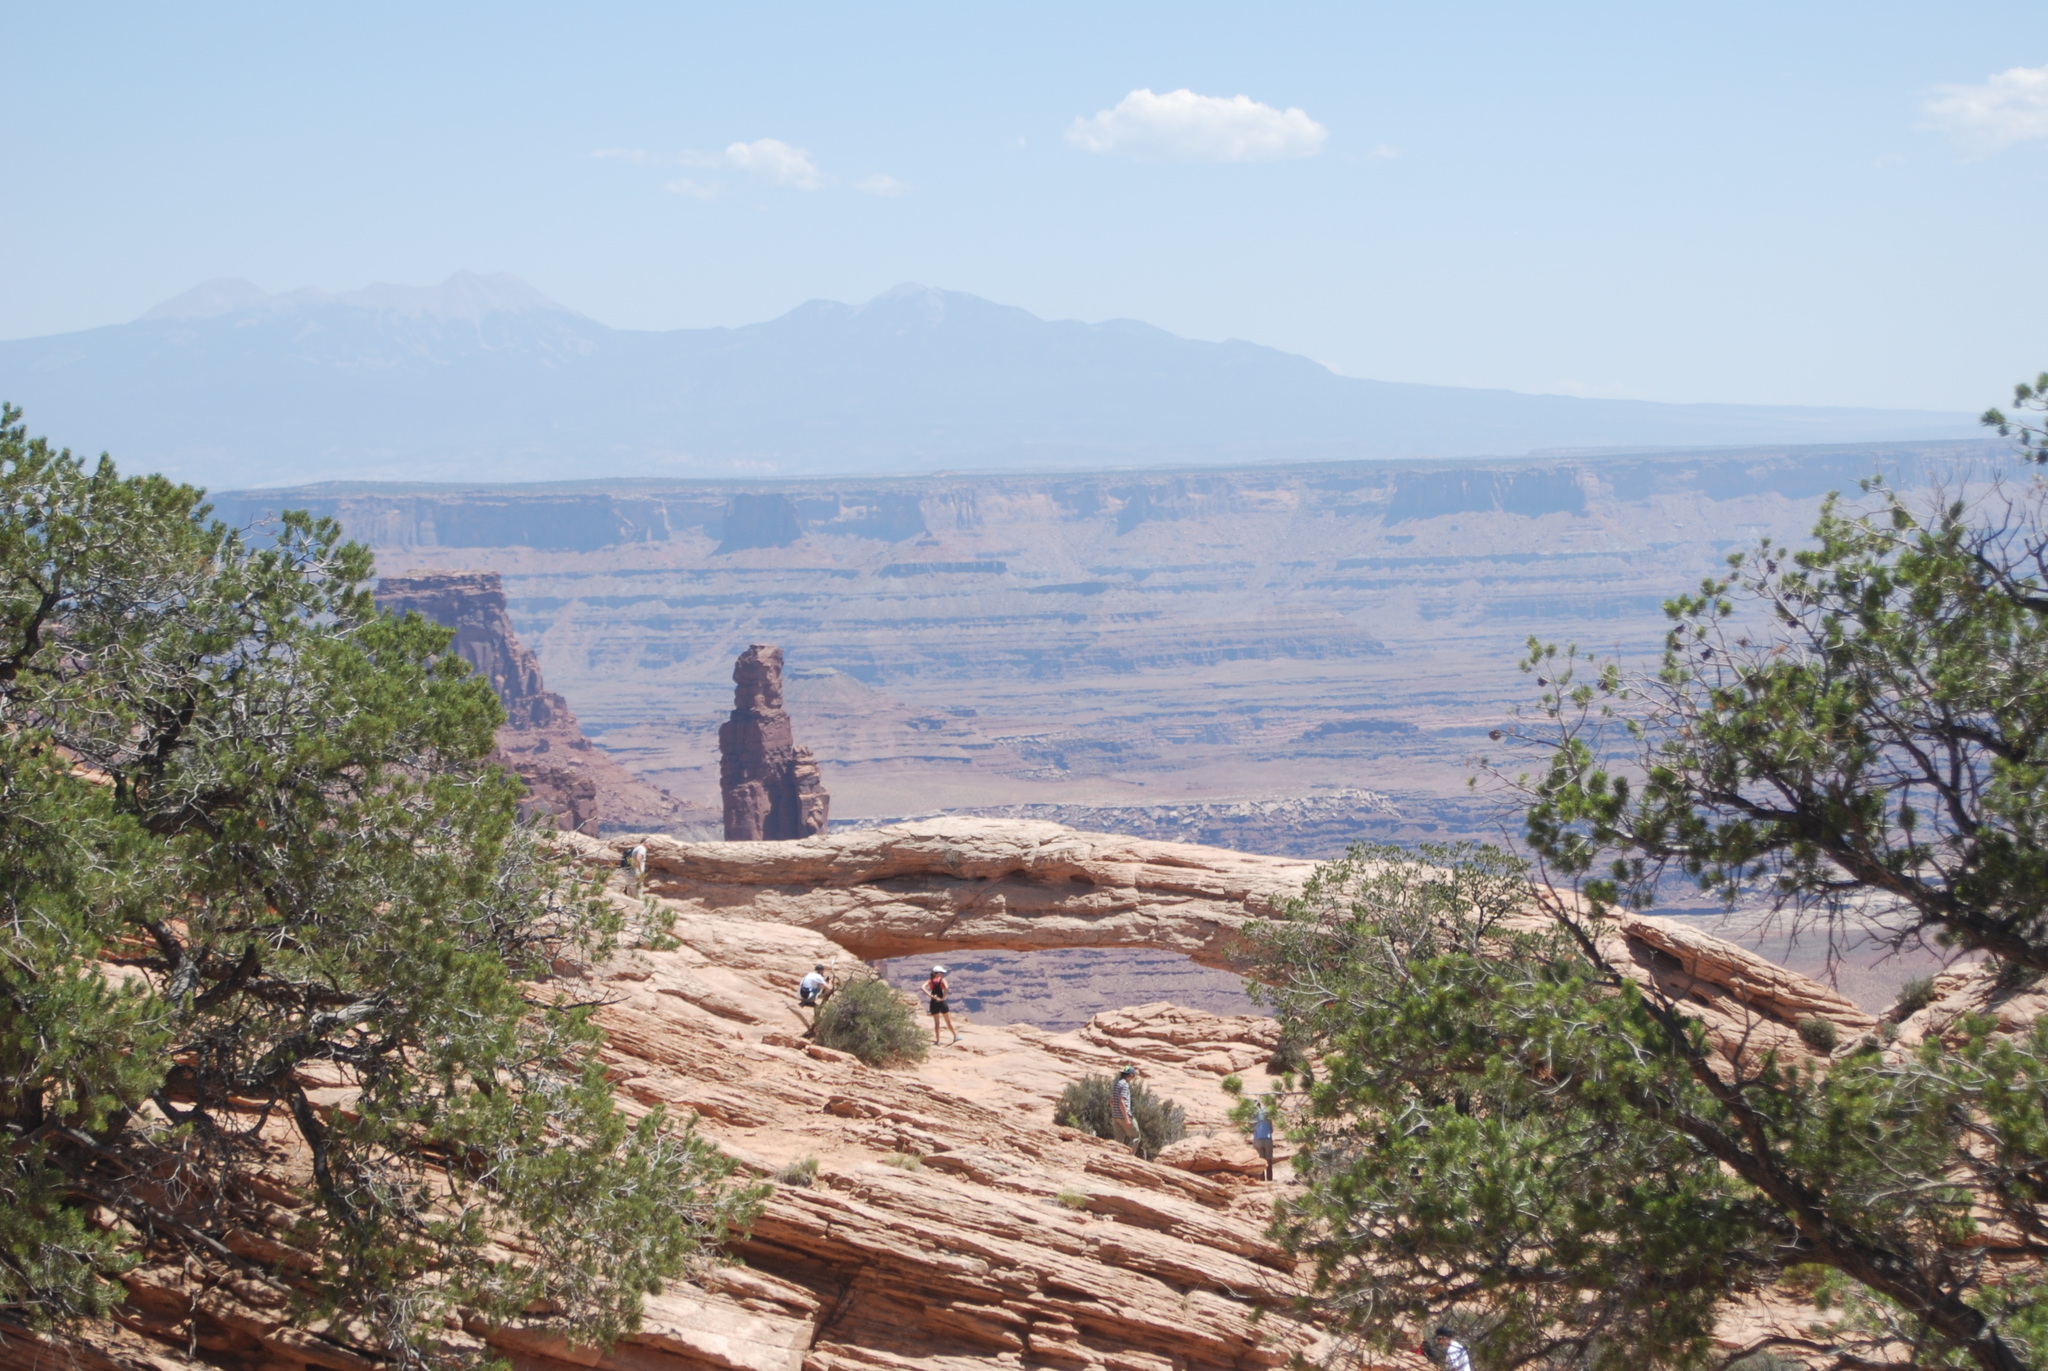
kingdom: Plantae
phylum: Tracheophyta
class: Pinopsida
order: Pinales
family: Pinaceae
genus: Pinus
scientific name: Pinus edulis
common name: Colorado pinyon
